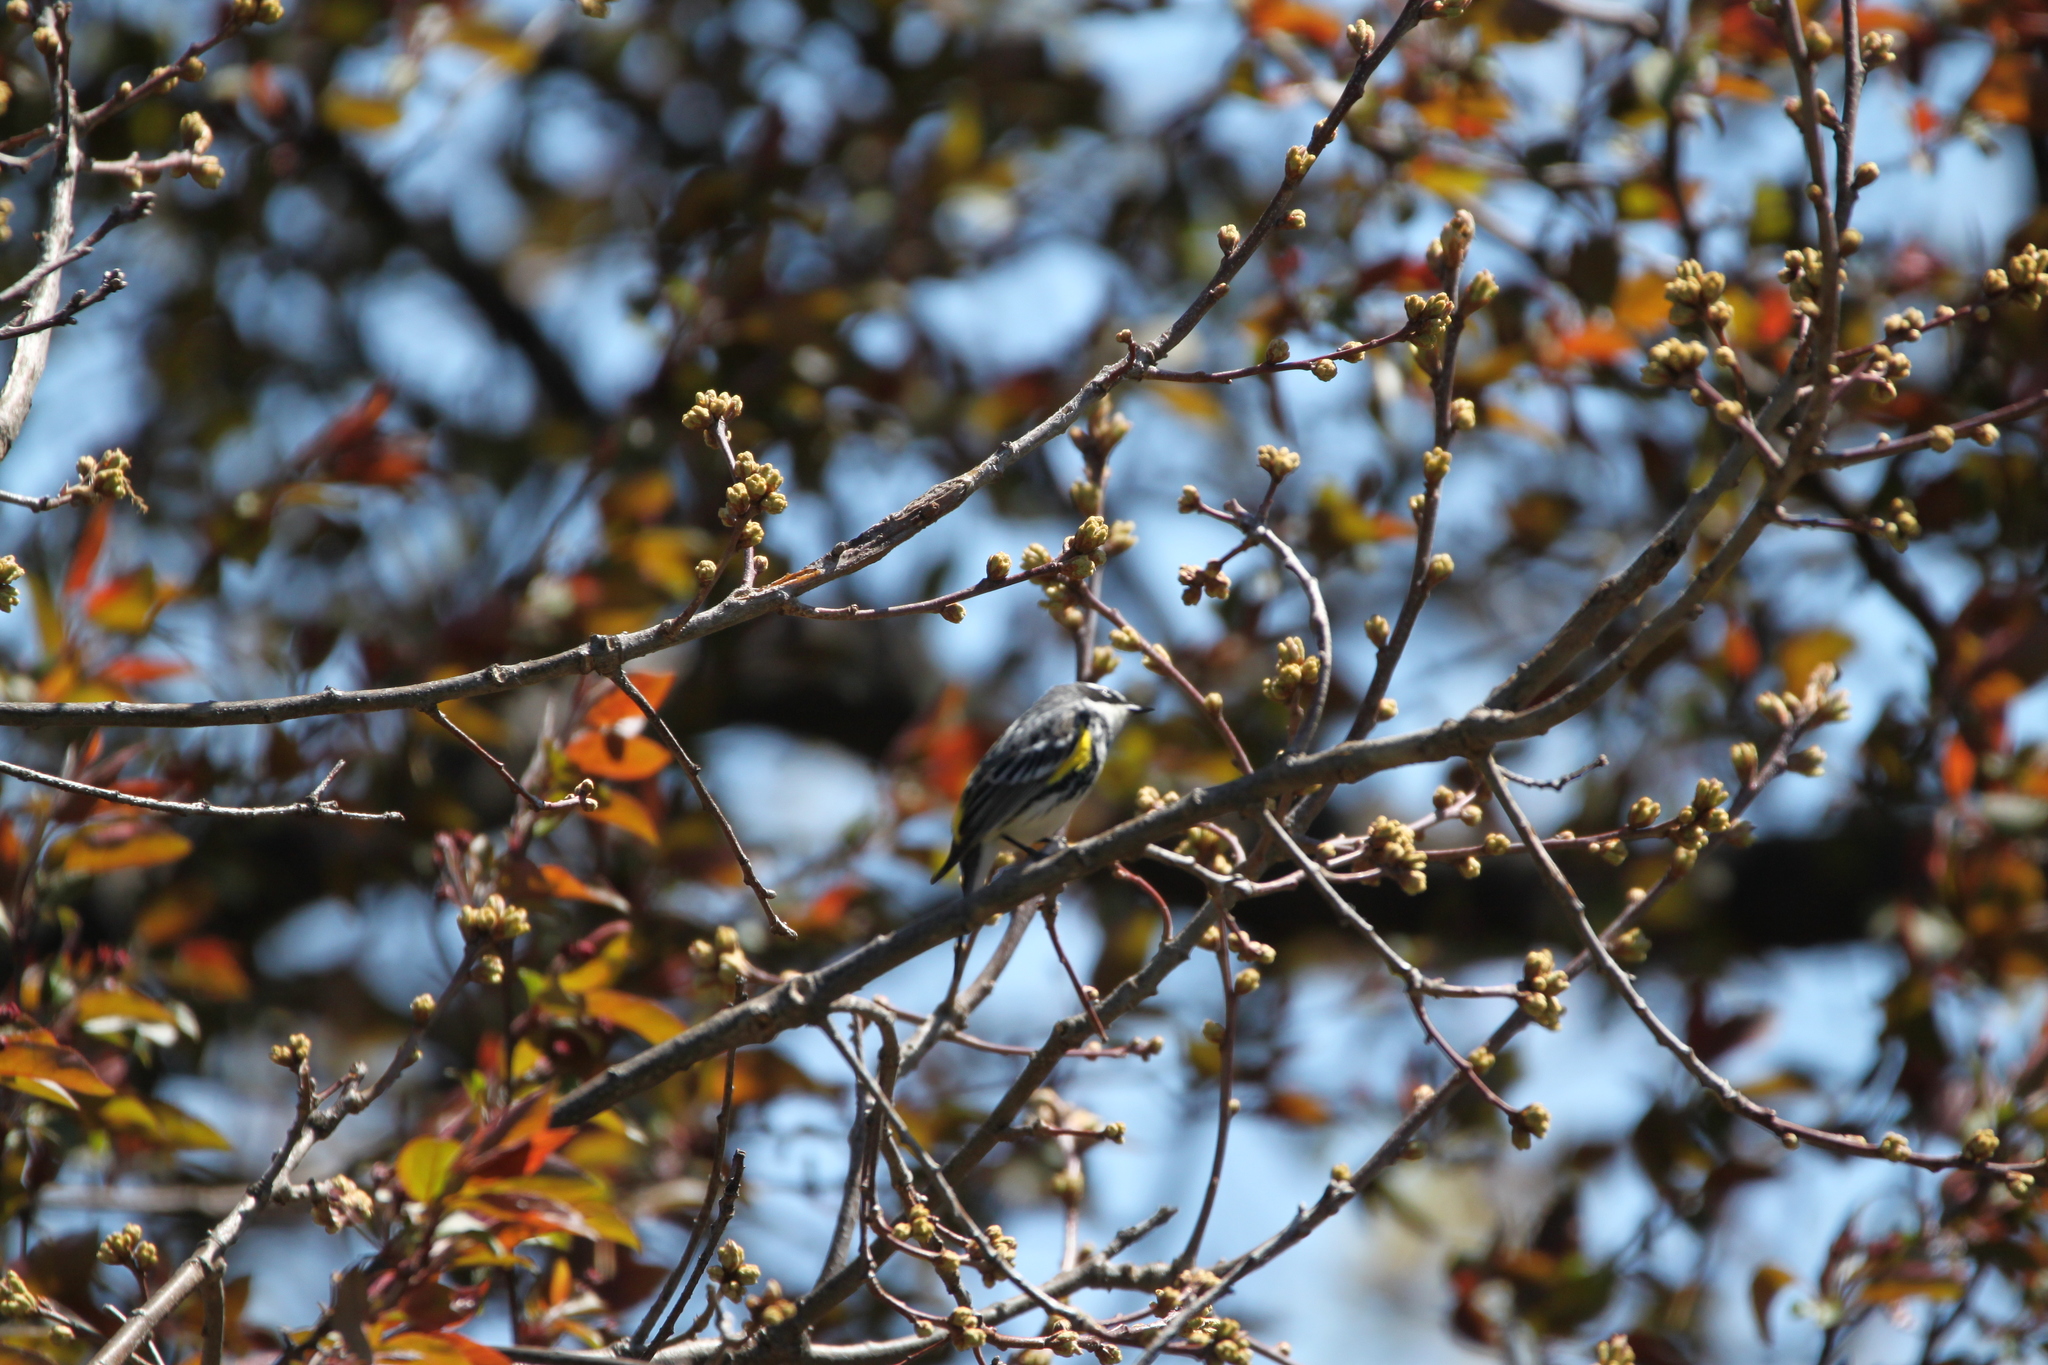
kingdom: Animalia
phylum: Chordata
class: Aves
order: Passeriformes
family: Parulidae
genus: Setophaga
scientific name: Setophaga coronata
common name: Myrtle warbler
